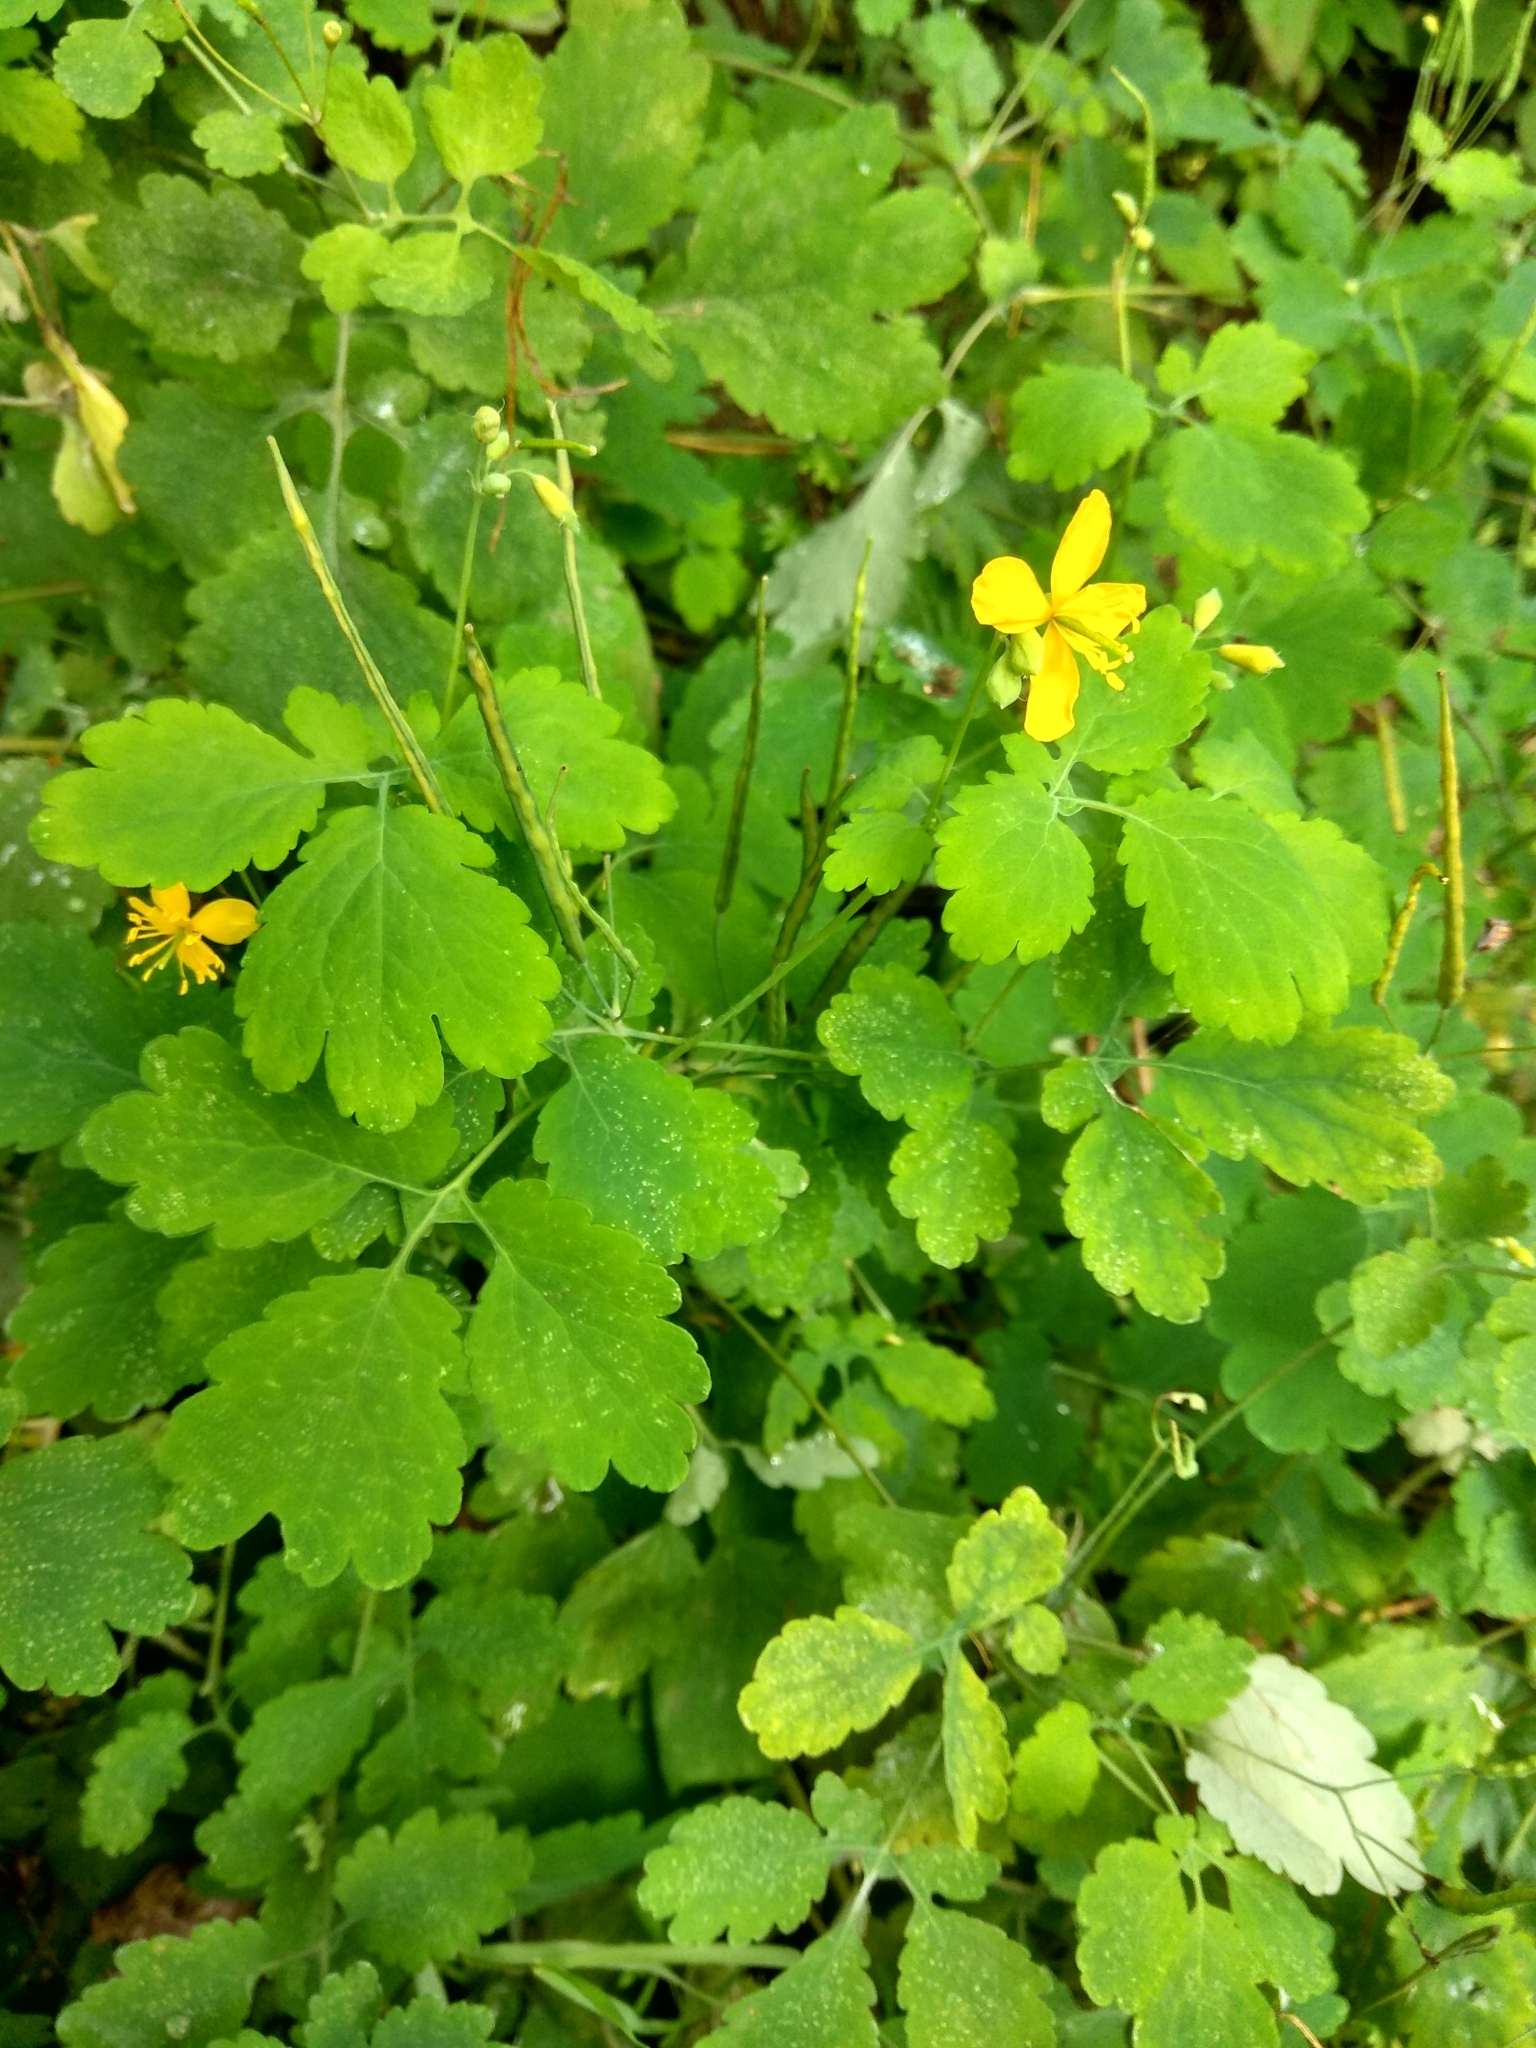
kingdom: Plantae
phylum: Tracheophyta
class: Magnoliopsida
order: Ranunculales
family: Papaveraceae
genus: Chelidonium
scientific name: Chelidonium majus
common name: Greater celandine
